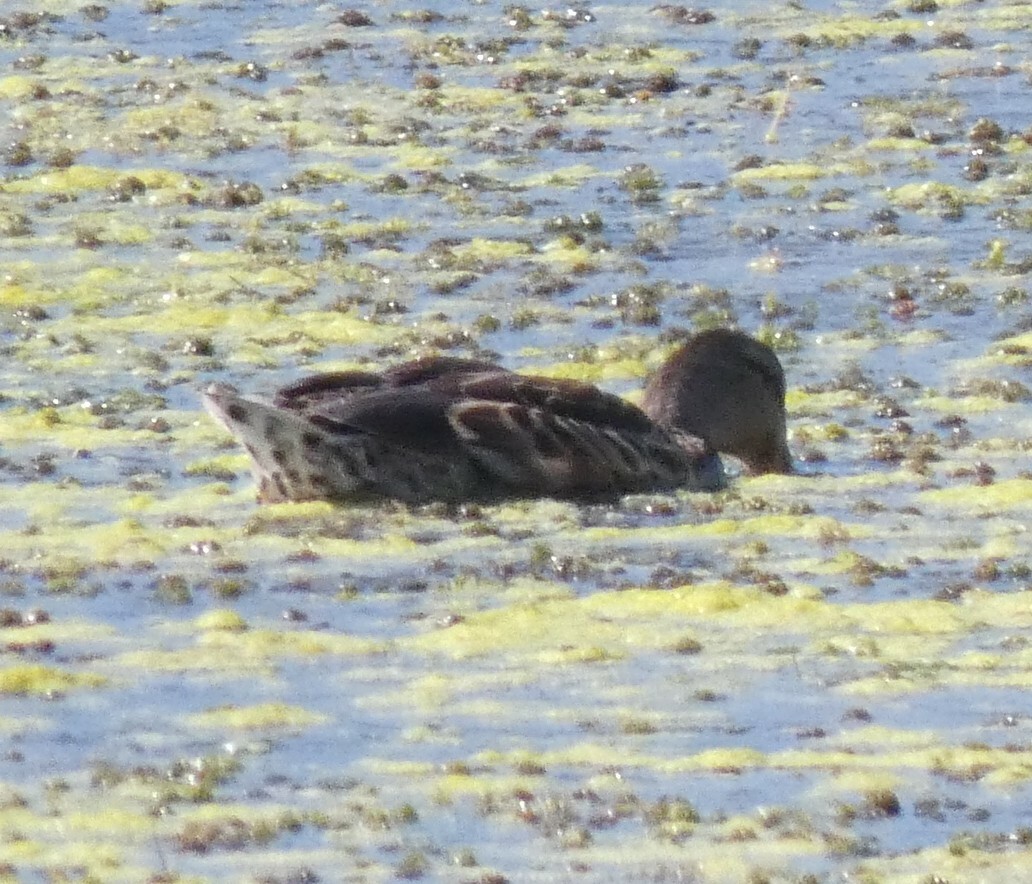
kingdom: Animalia
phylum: Chordata
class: Aves
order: Anseriformes
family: Anatidae
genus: Anas
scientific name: Anas platyrhynchos
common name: Mallard
